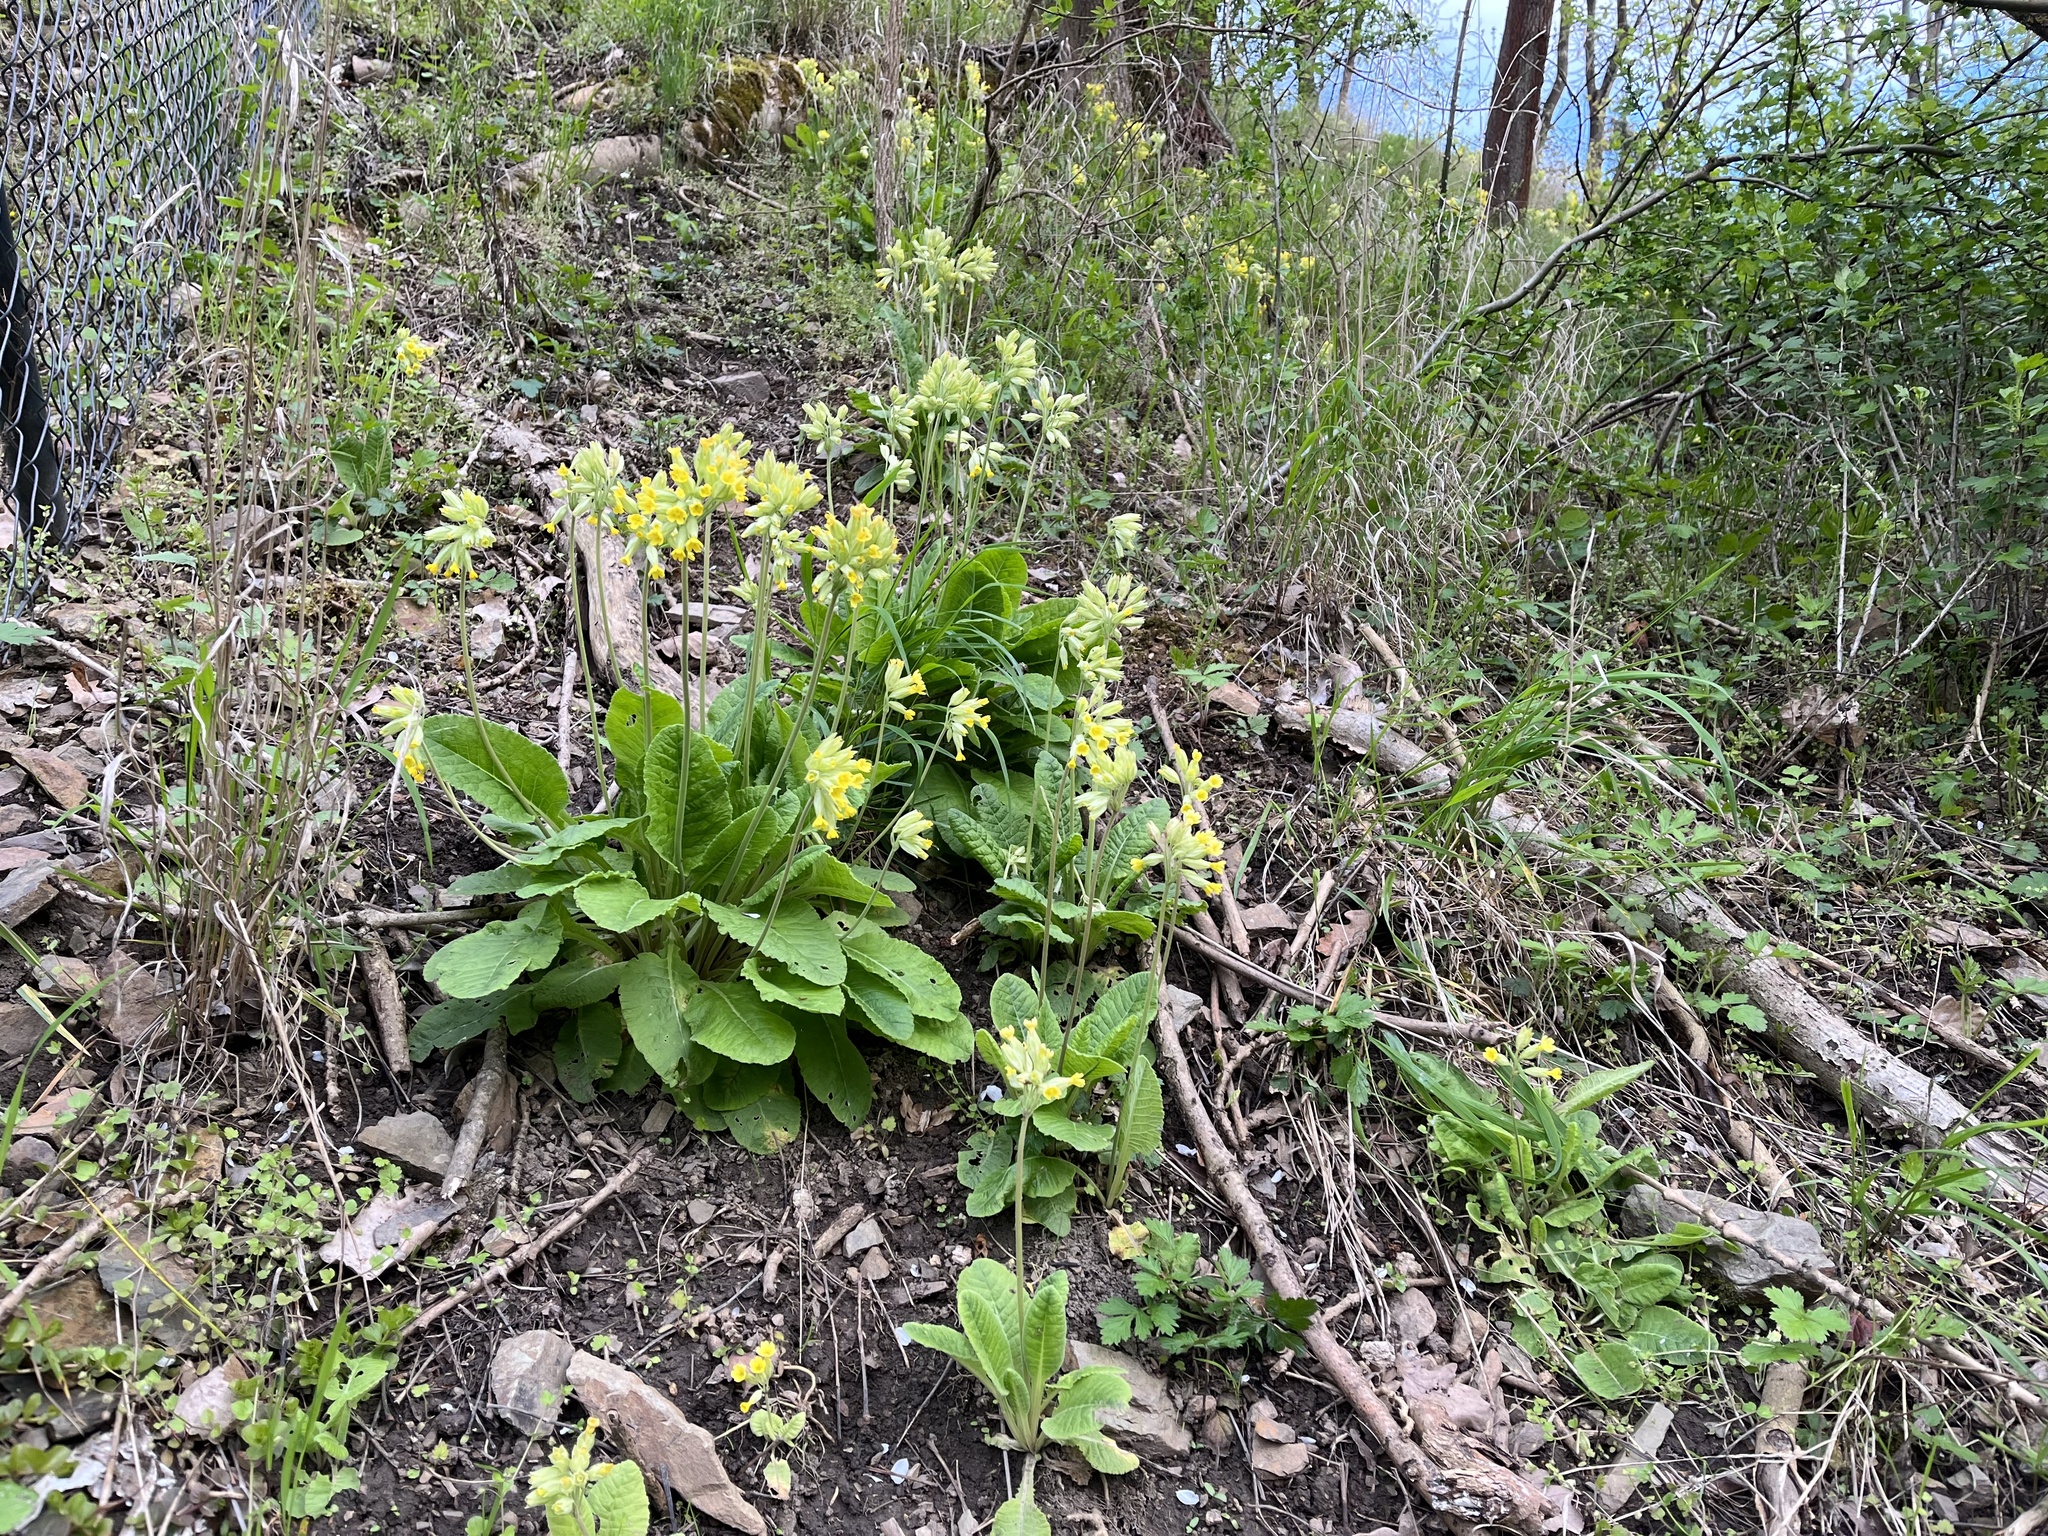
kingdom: Plantae
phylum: Tracheophyta
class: Magnoliopsida
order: Ericales
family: Primulaceae
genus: Primula
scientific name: Primula veris
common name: Cowslip
